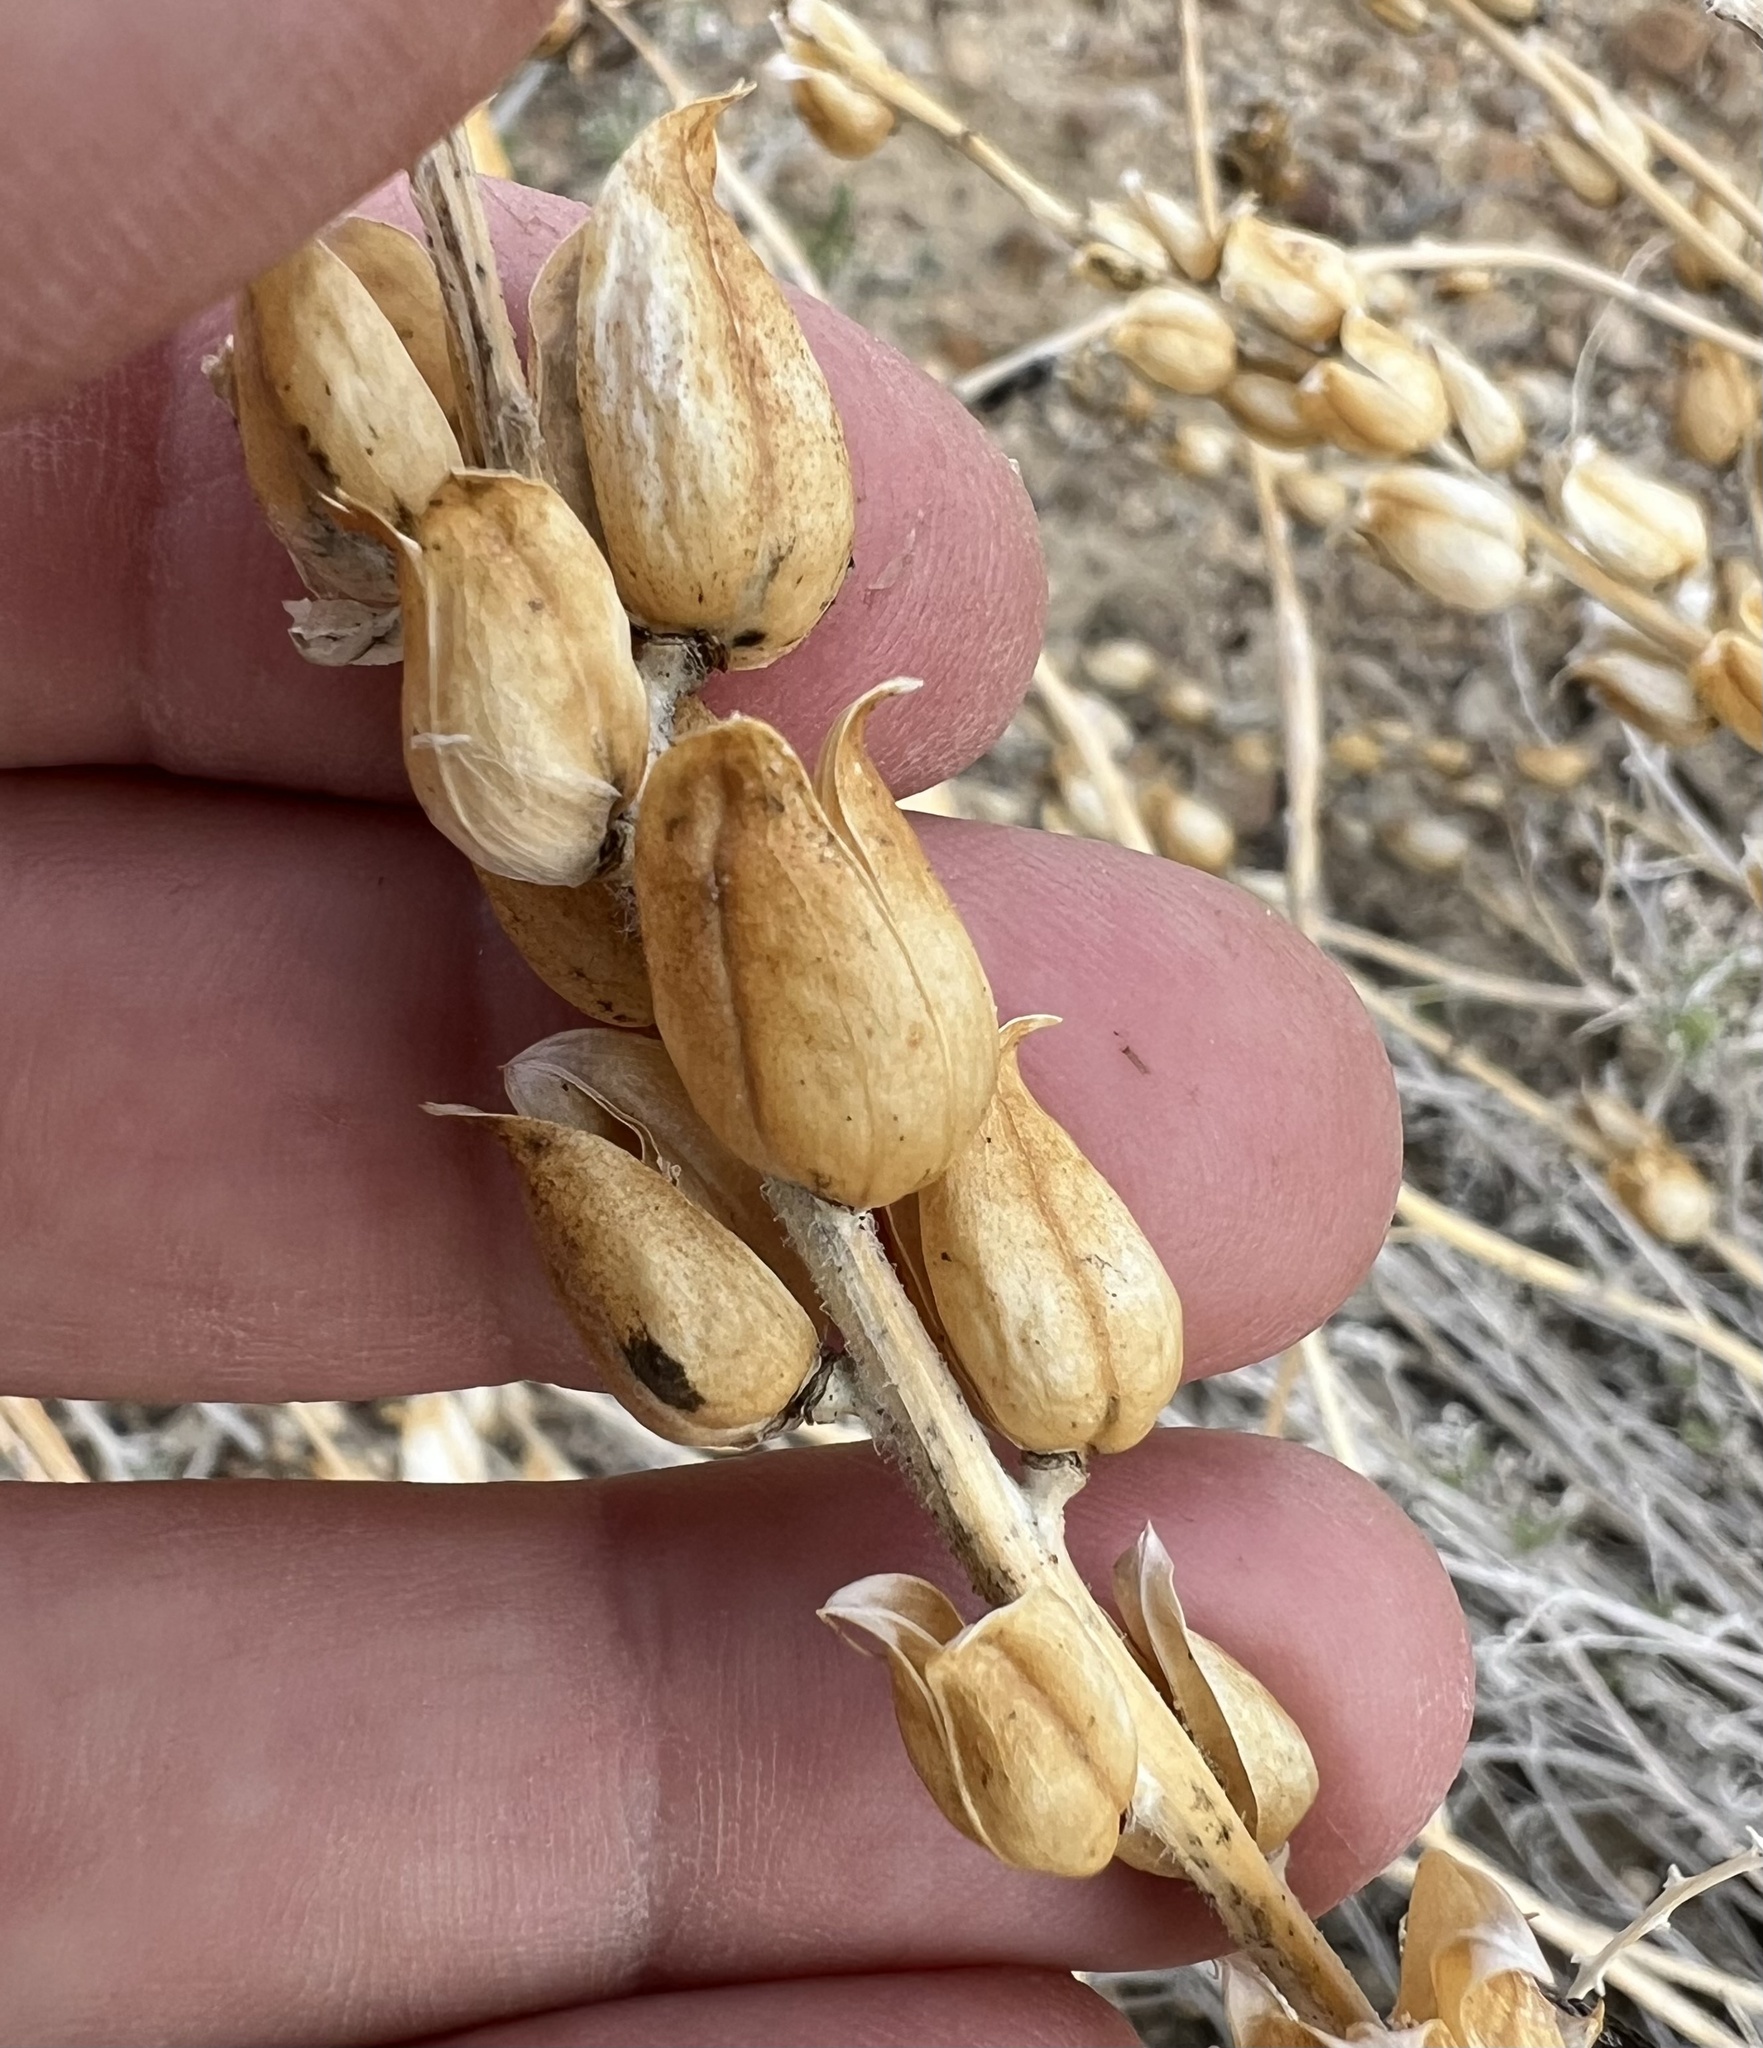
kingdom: Plantae
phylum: Tracheophyta
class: Magnoliopsida
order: Lamiales
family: Orobanchaceae
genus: Castilleja
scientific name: Castilleja chromosa
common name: Desert paintbrush
